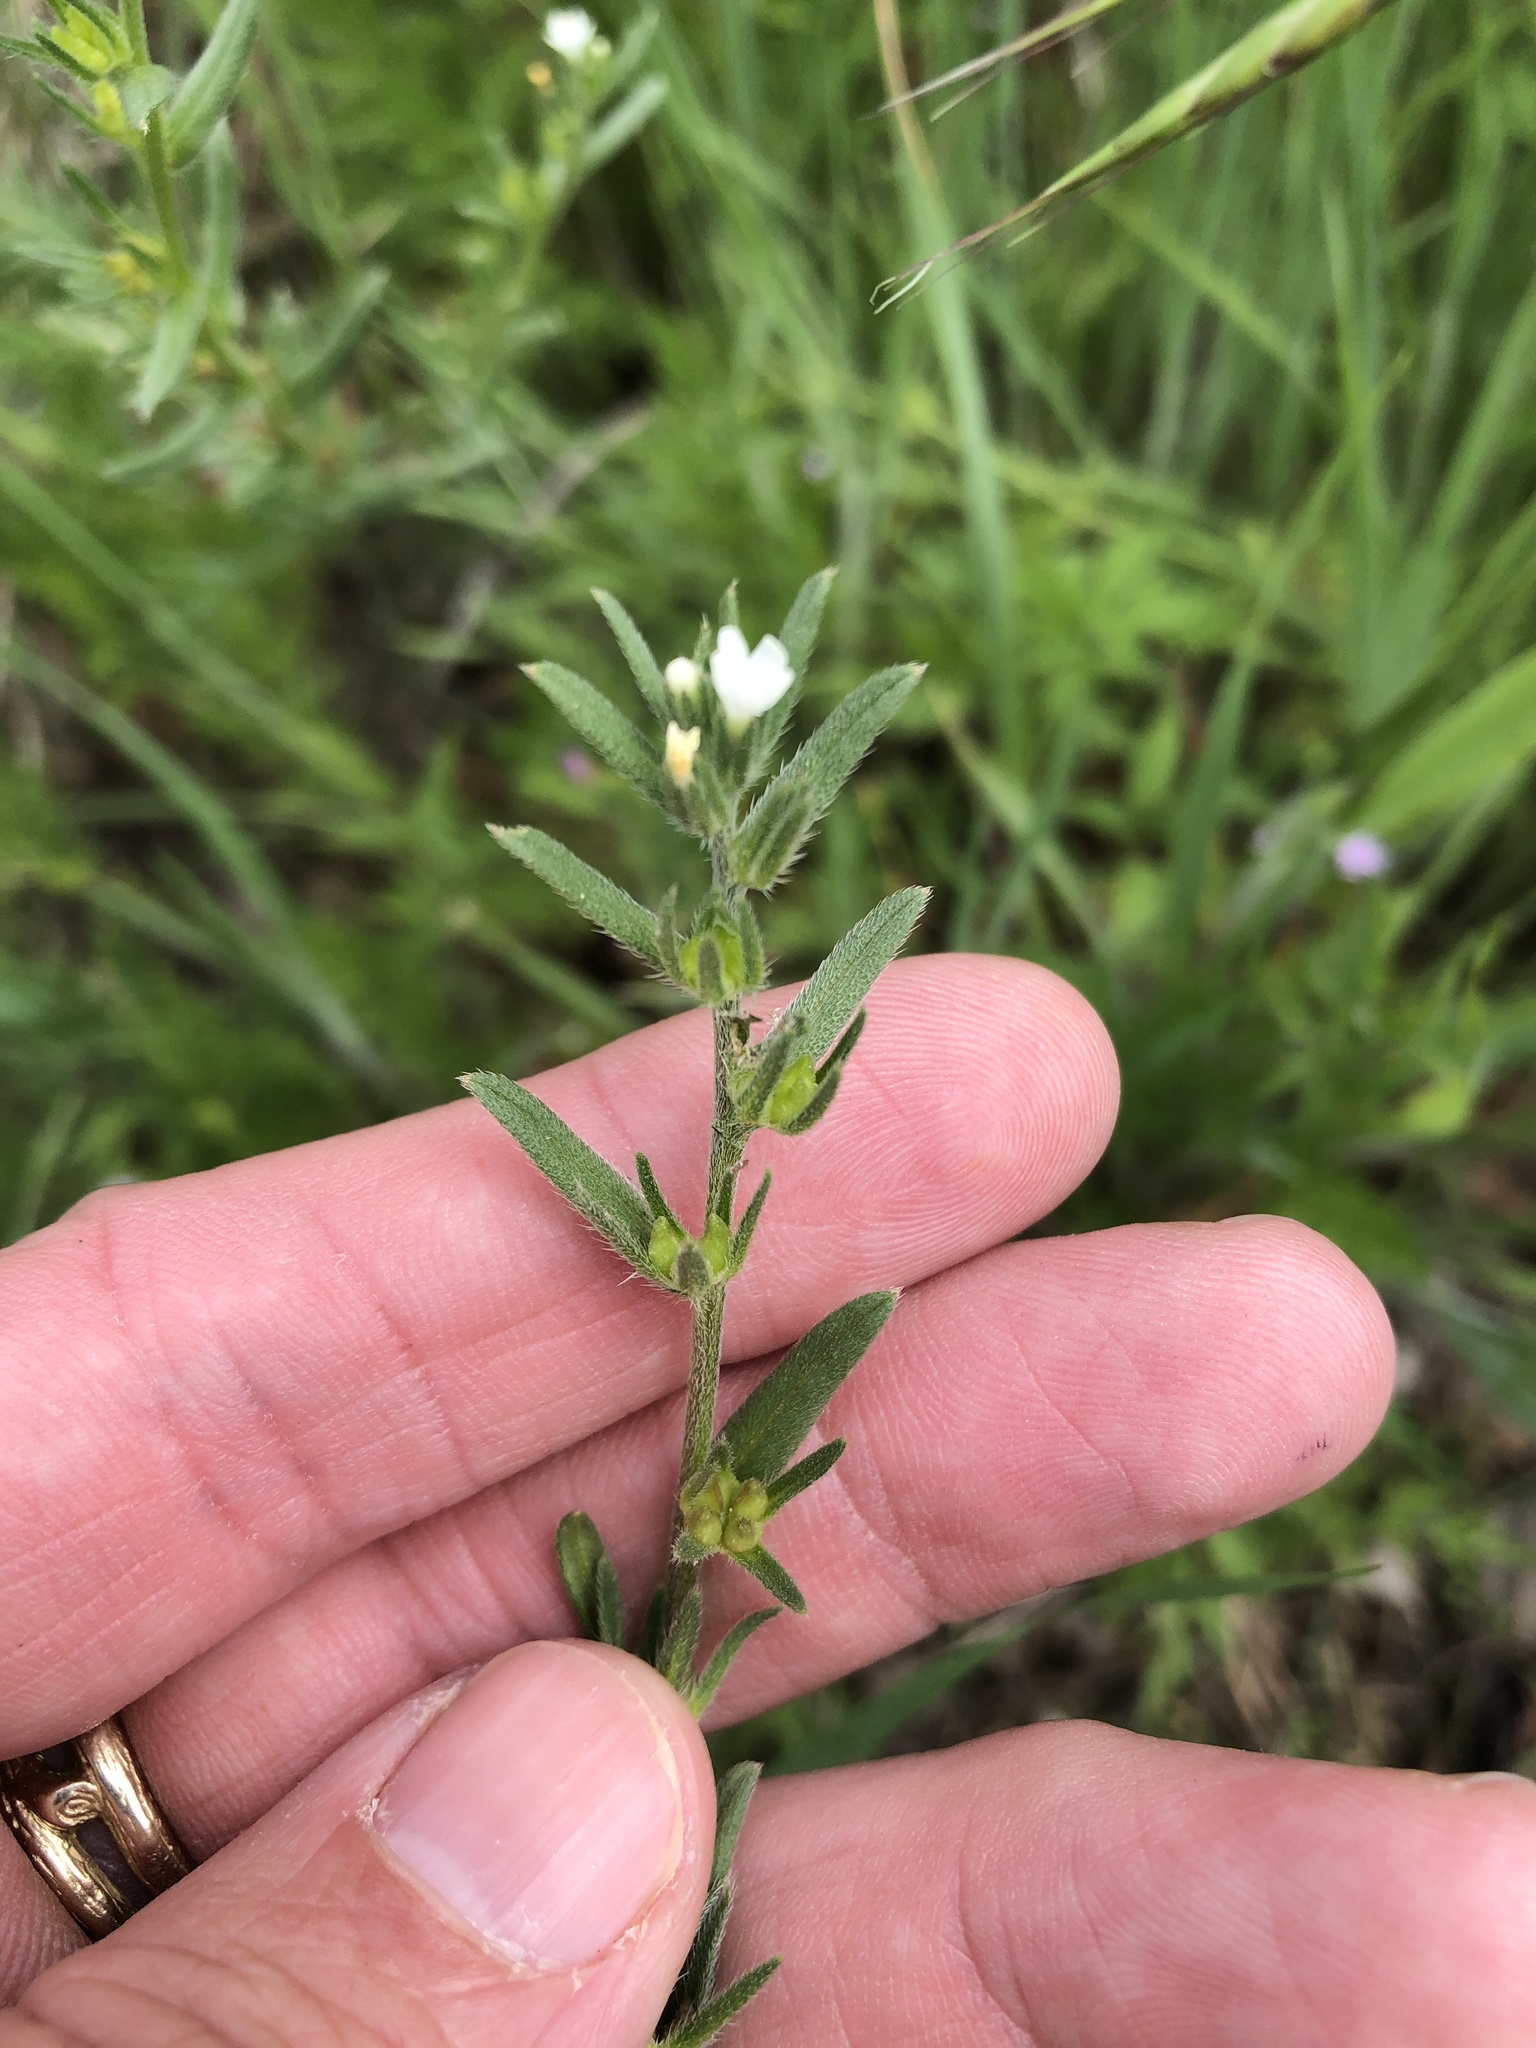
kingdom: Plantae
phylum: Tracheophyta
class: Magnoliopsida
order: Boraginales
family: Boraginaceae
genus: Buglossoides
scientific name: Buglossoides arvensis
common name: Corn gromwell
